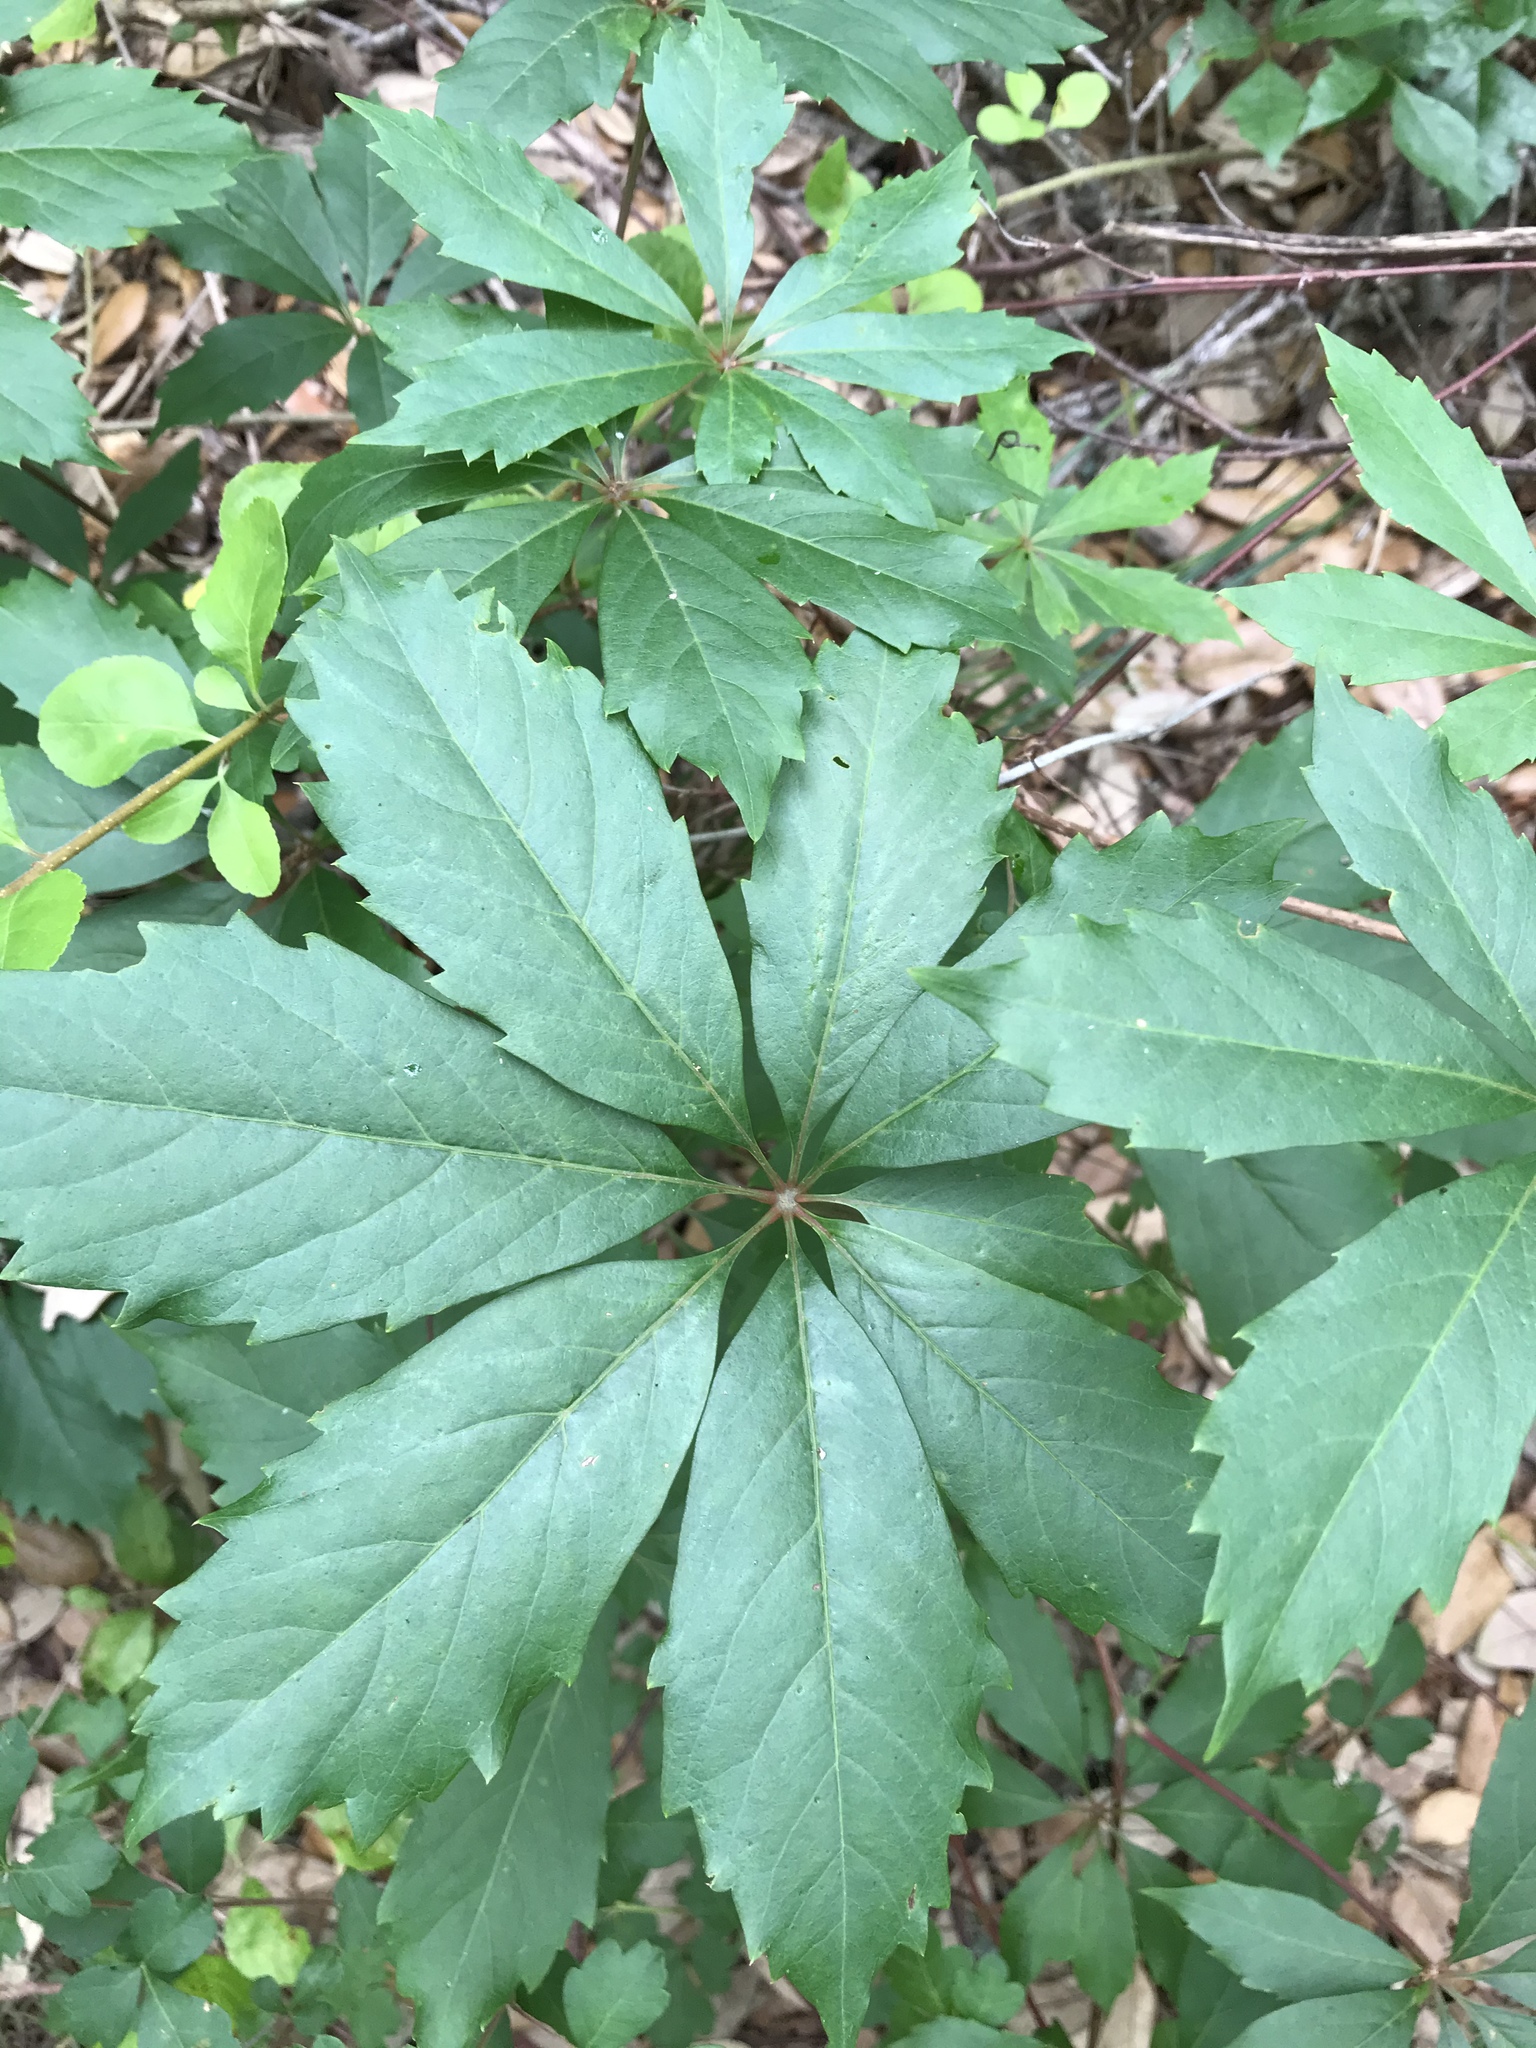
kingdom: Plantae
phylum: Tracheophyta
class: Magnoliopsida
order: Vitales
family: Vitaceae
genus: Parthenocissus
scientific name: Parthenocissus heptaphylla
